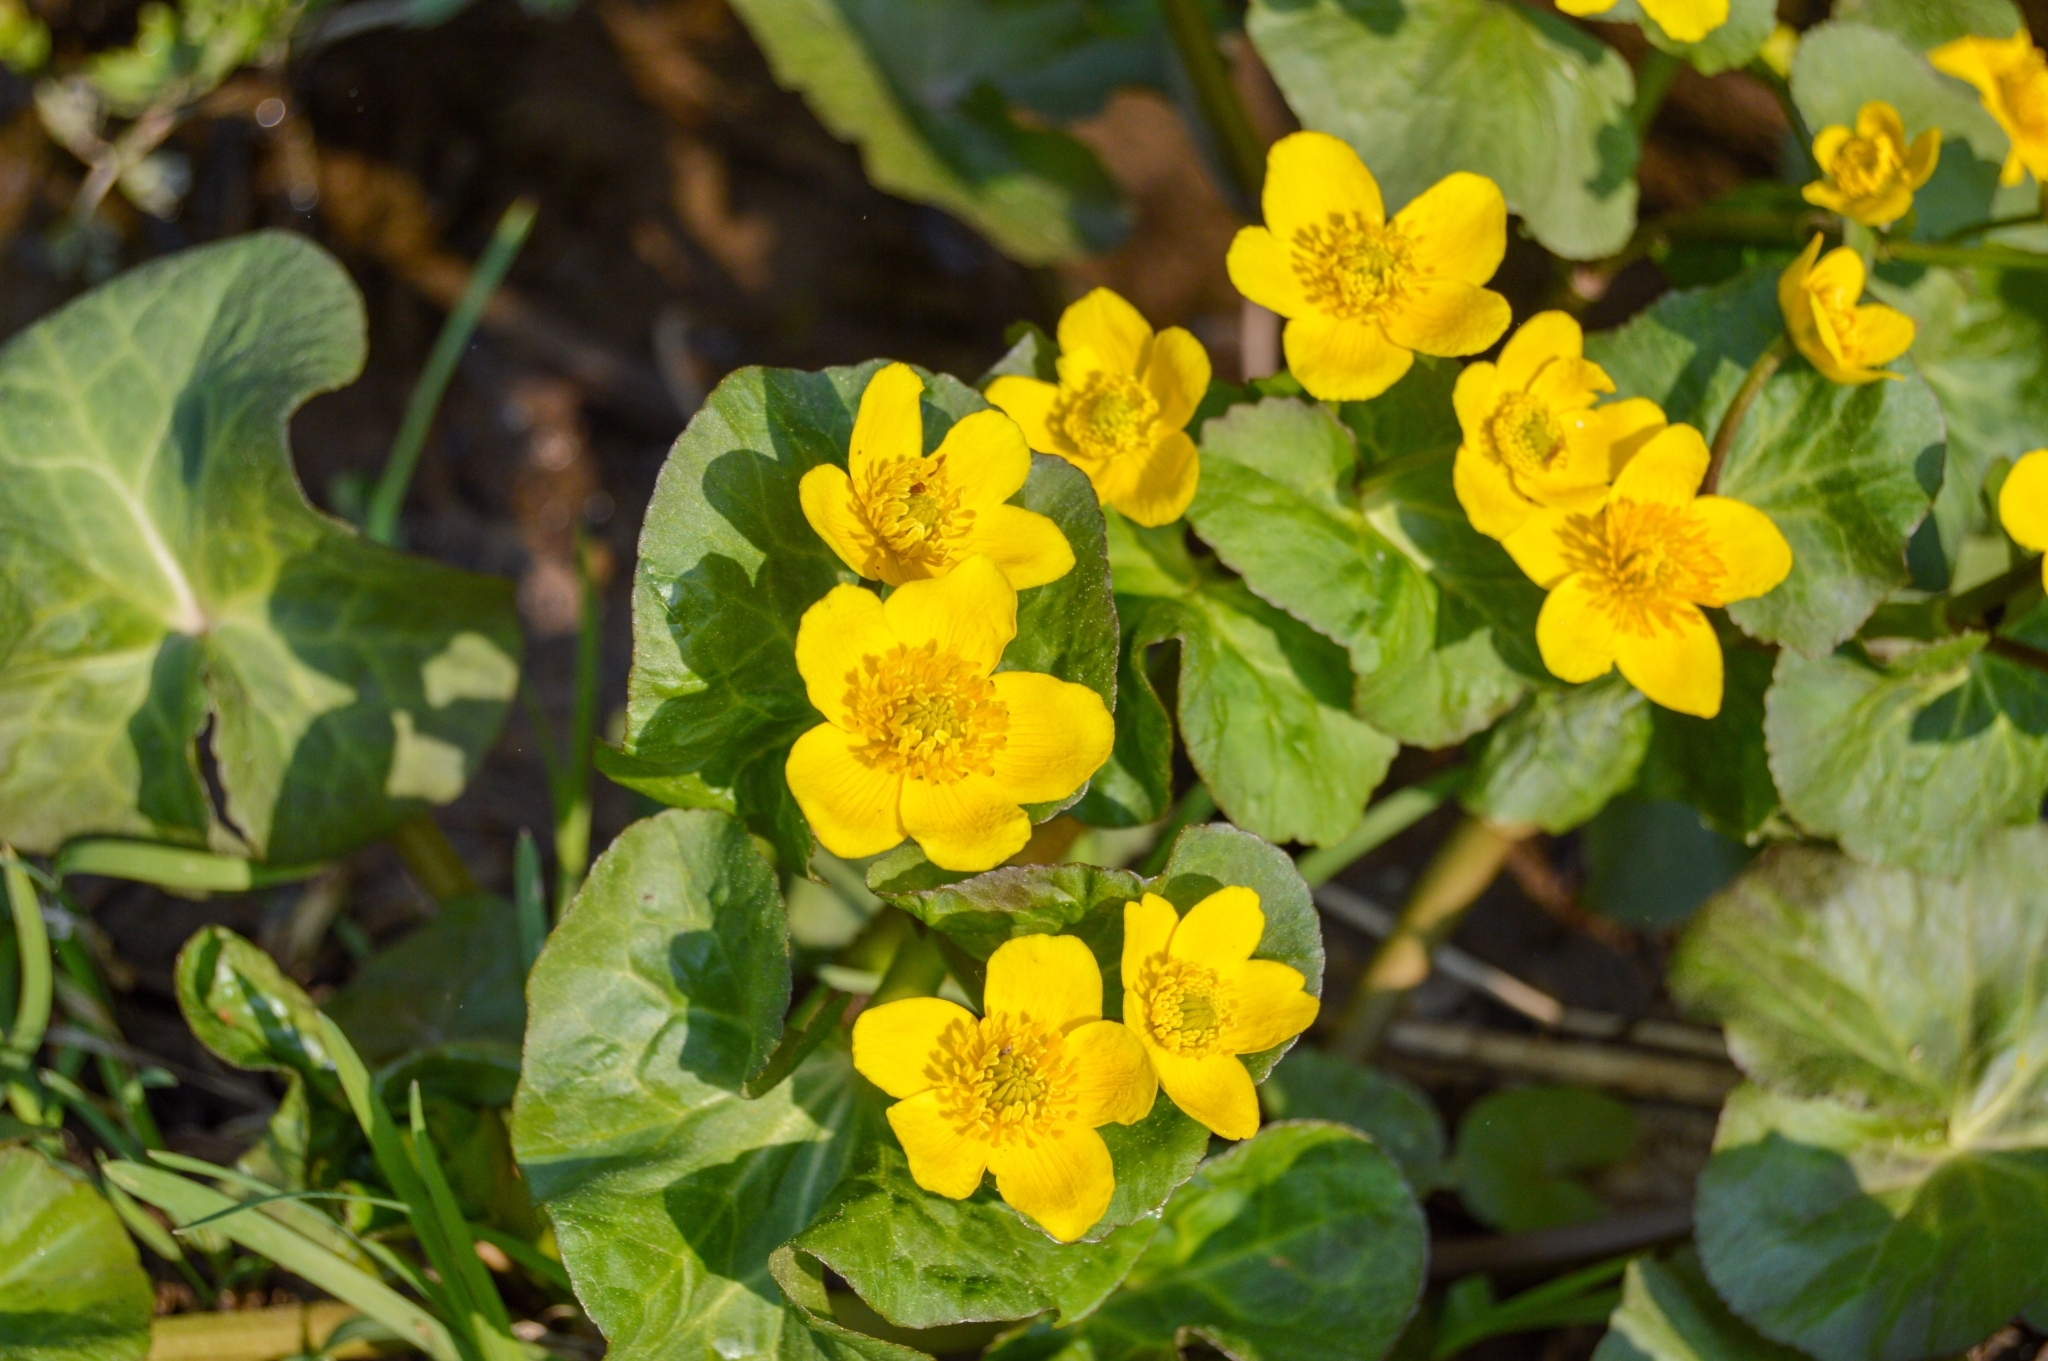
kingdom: Plantae
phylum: Tracheophyta
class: Magnoliopsida
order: Ranunculales
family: Ranunculaceae
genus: Caltha
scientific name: Caltha palustris
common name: Marsh marigold
